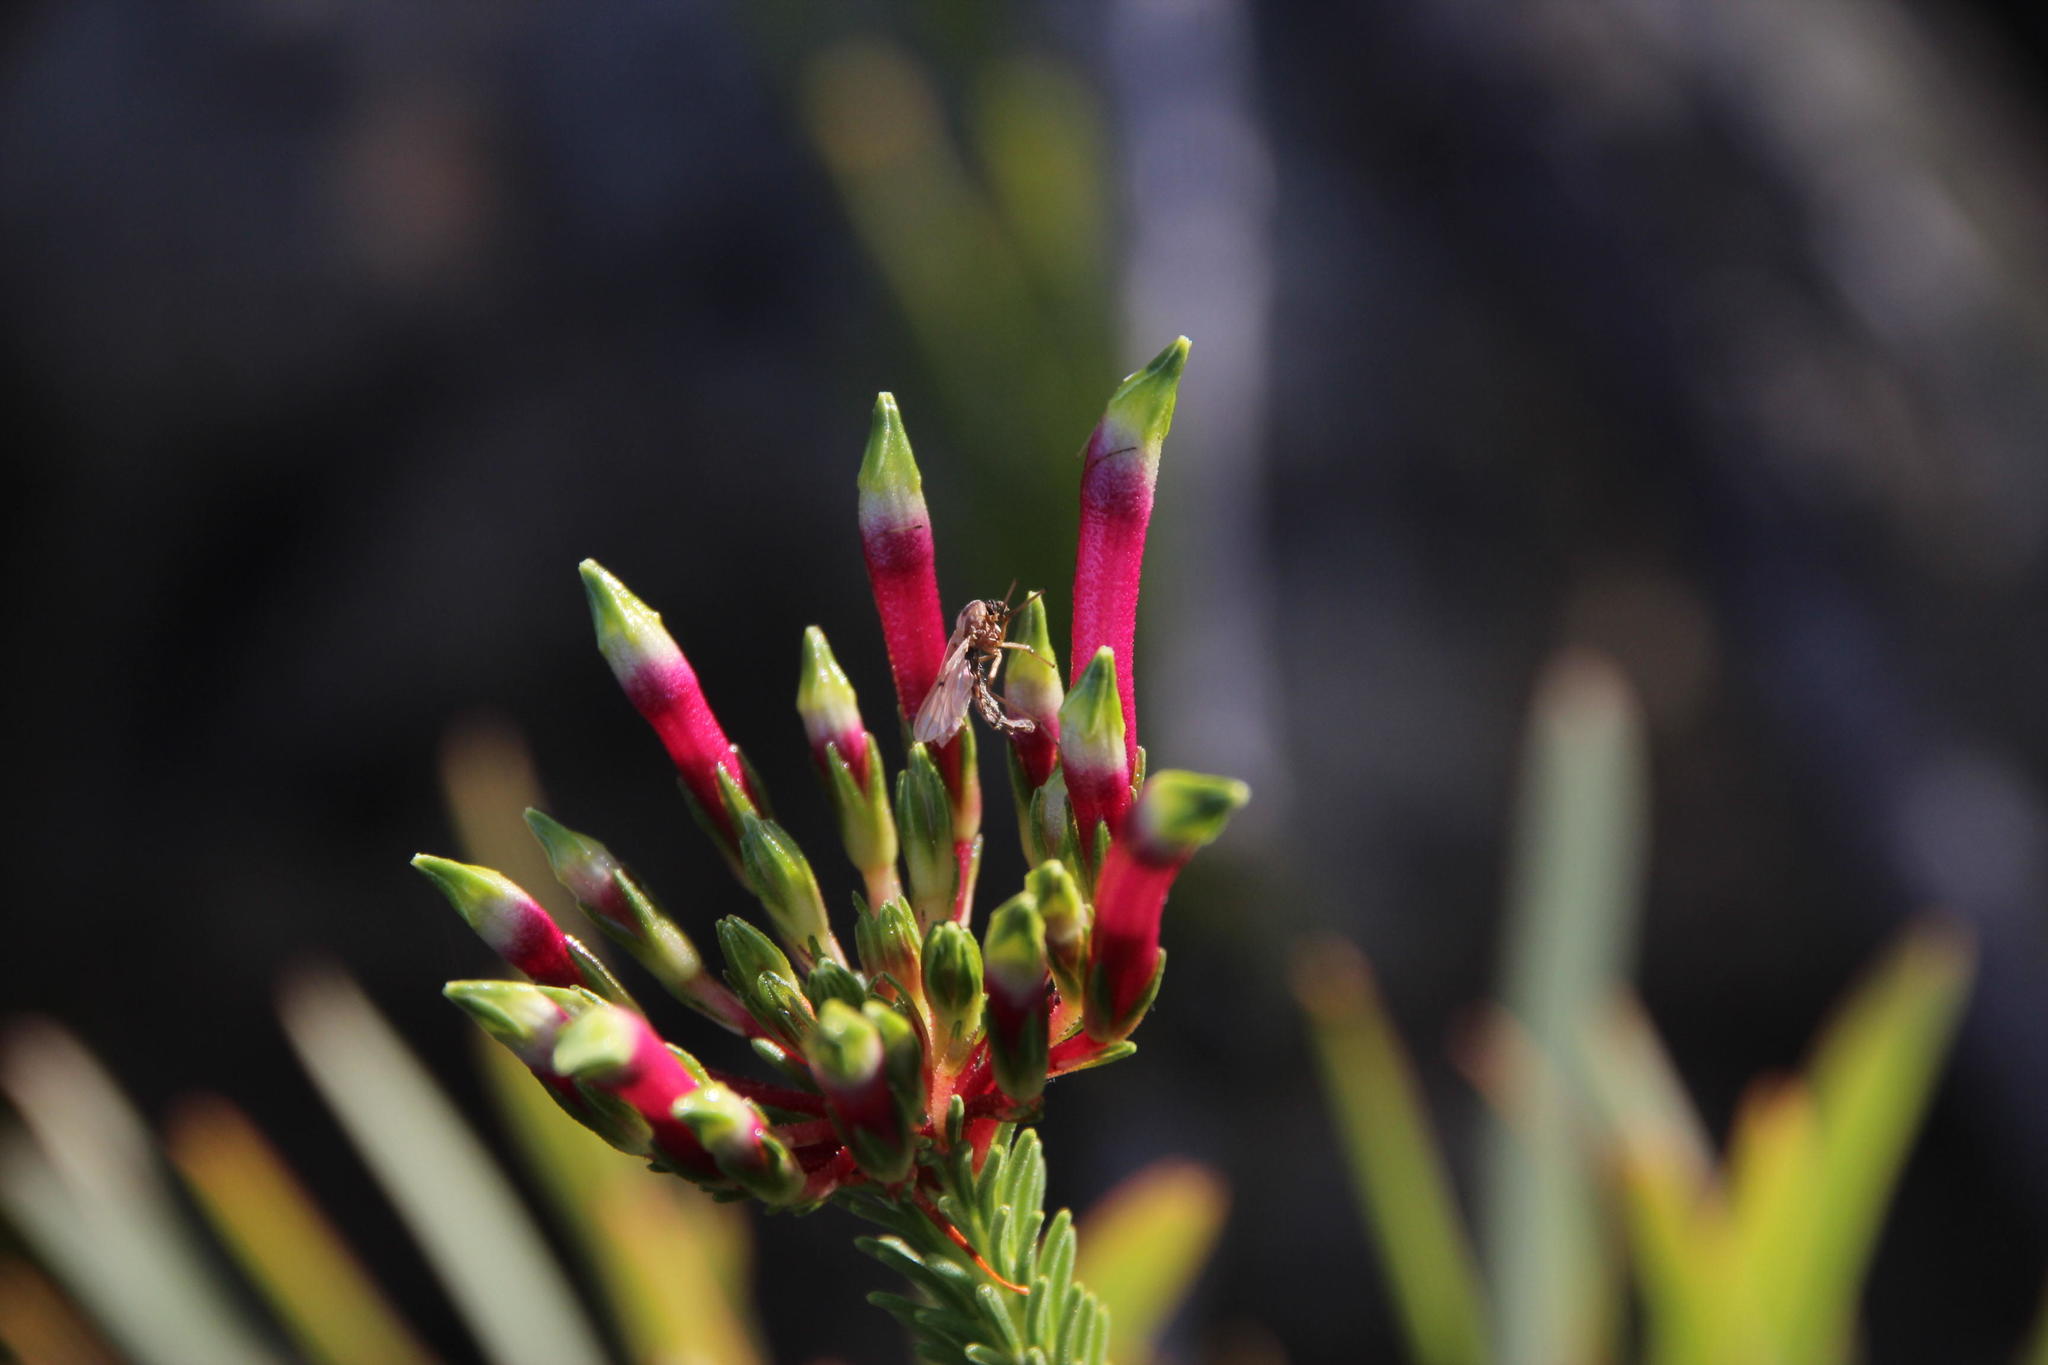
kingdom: Plantae
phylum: Tracheophyta
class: Magnoliopsida
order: Ericales
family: Ericaceae
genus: Erica
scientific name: Erica fascicularis
